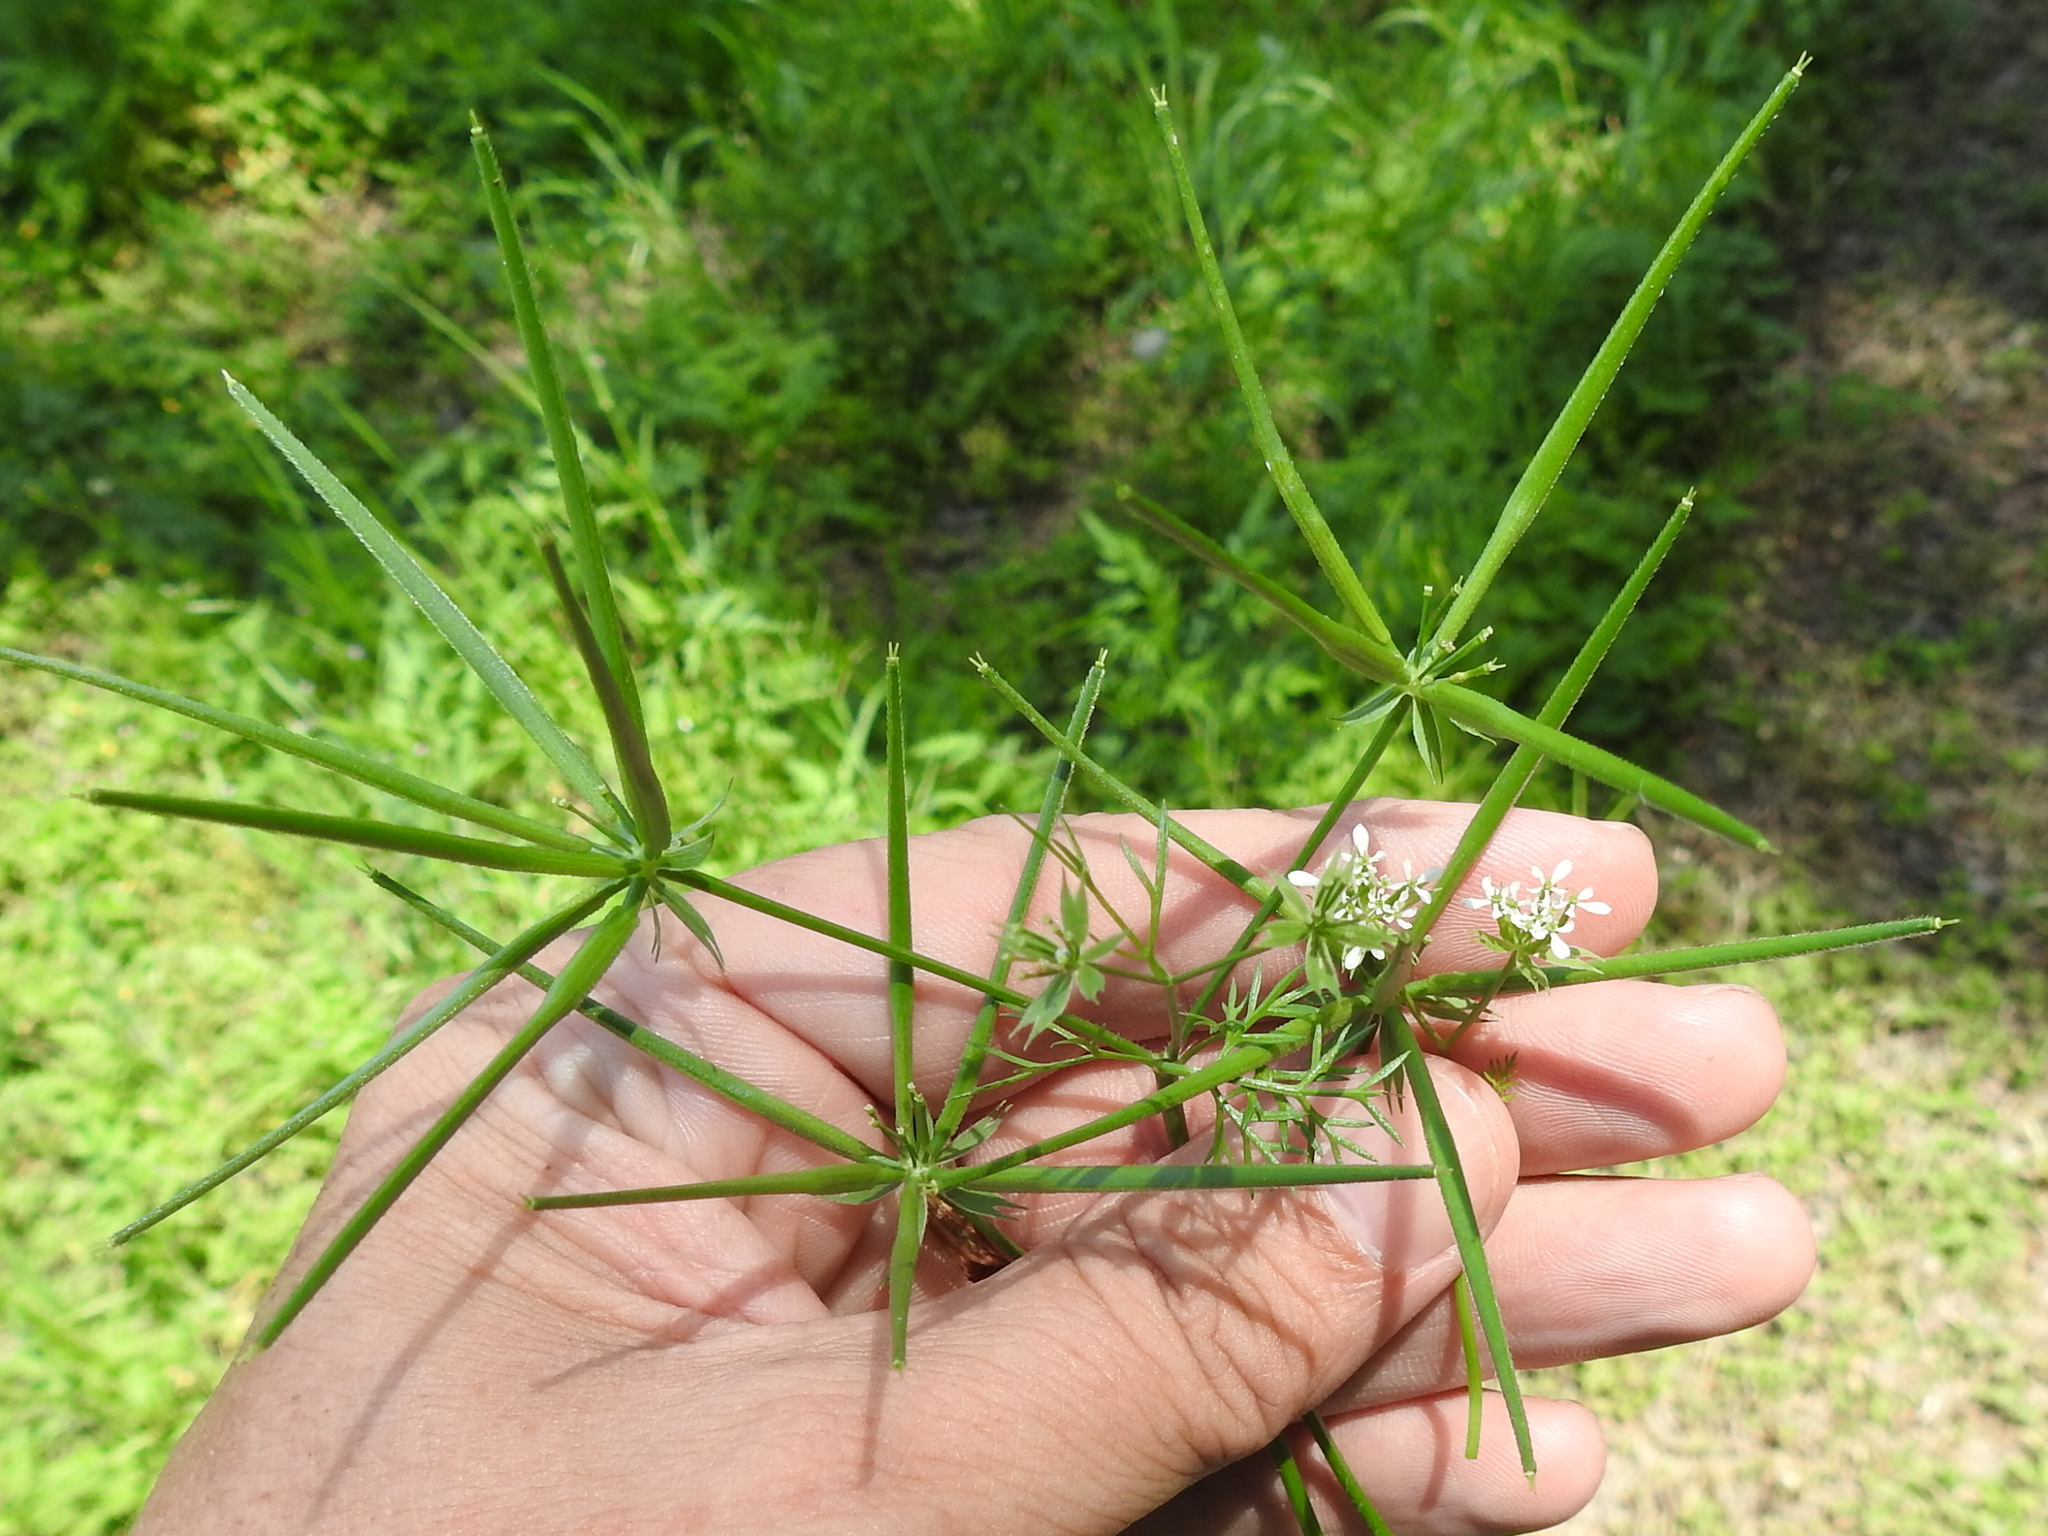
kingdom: Plantae
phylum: Tracheophyta
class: Magnoliopsida
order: Apiales
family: Apiaceae
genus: Scandix
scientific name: Scandix pecten-veneris
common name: Shepherd's-needle
